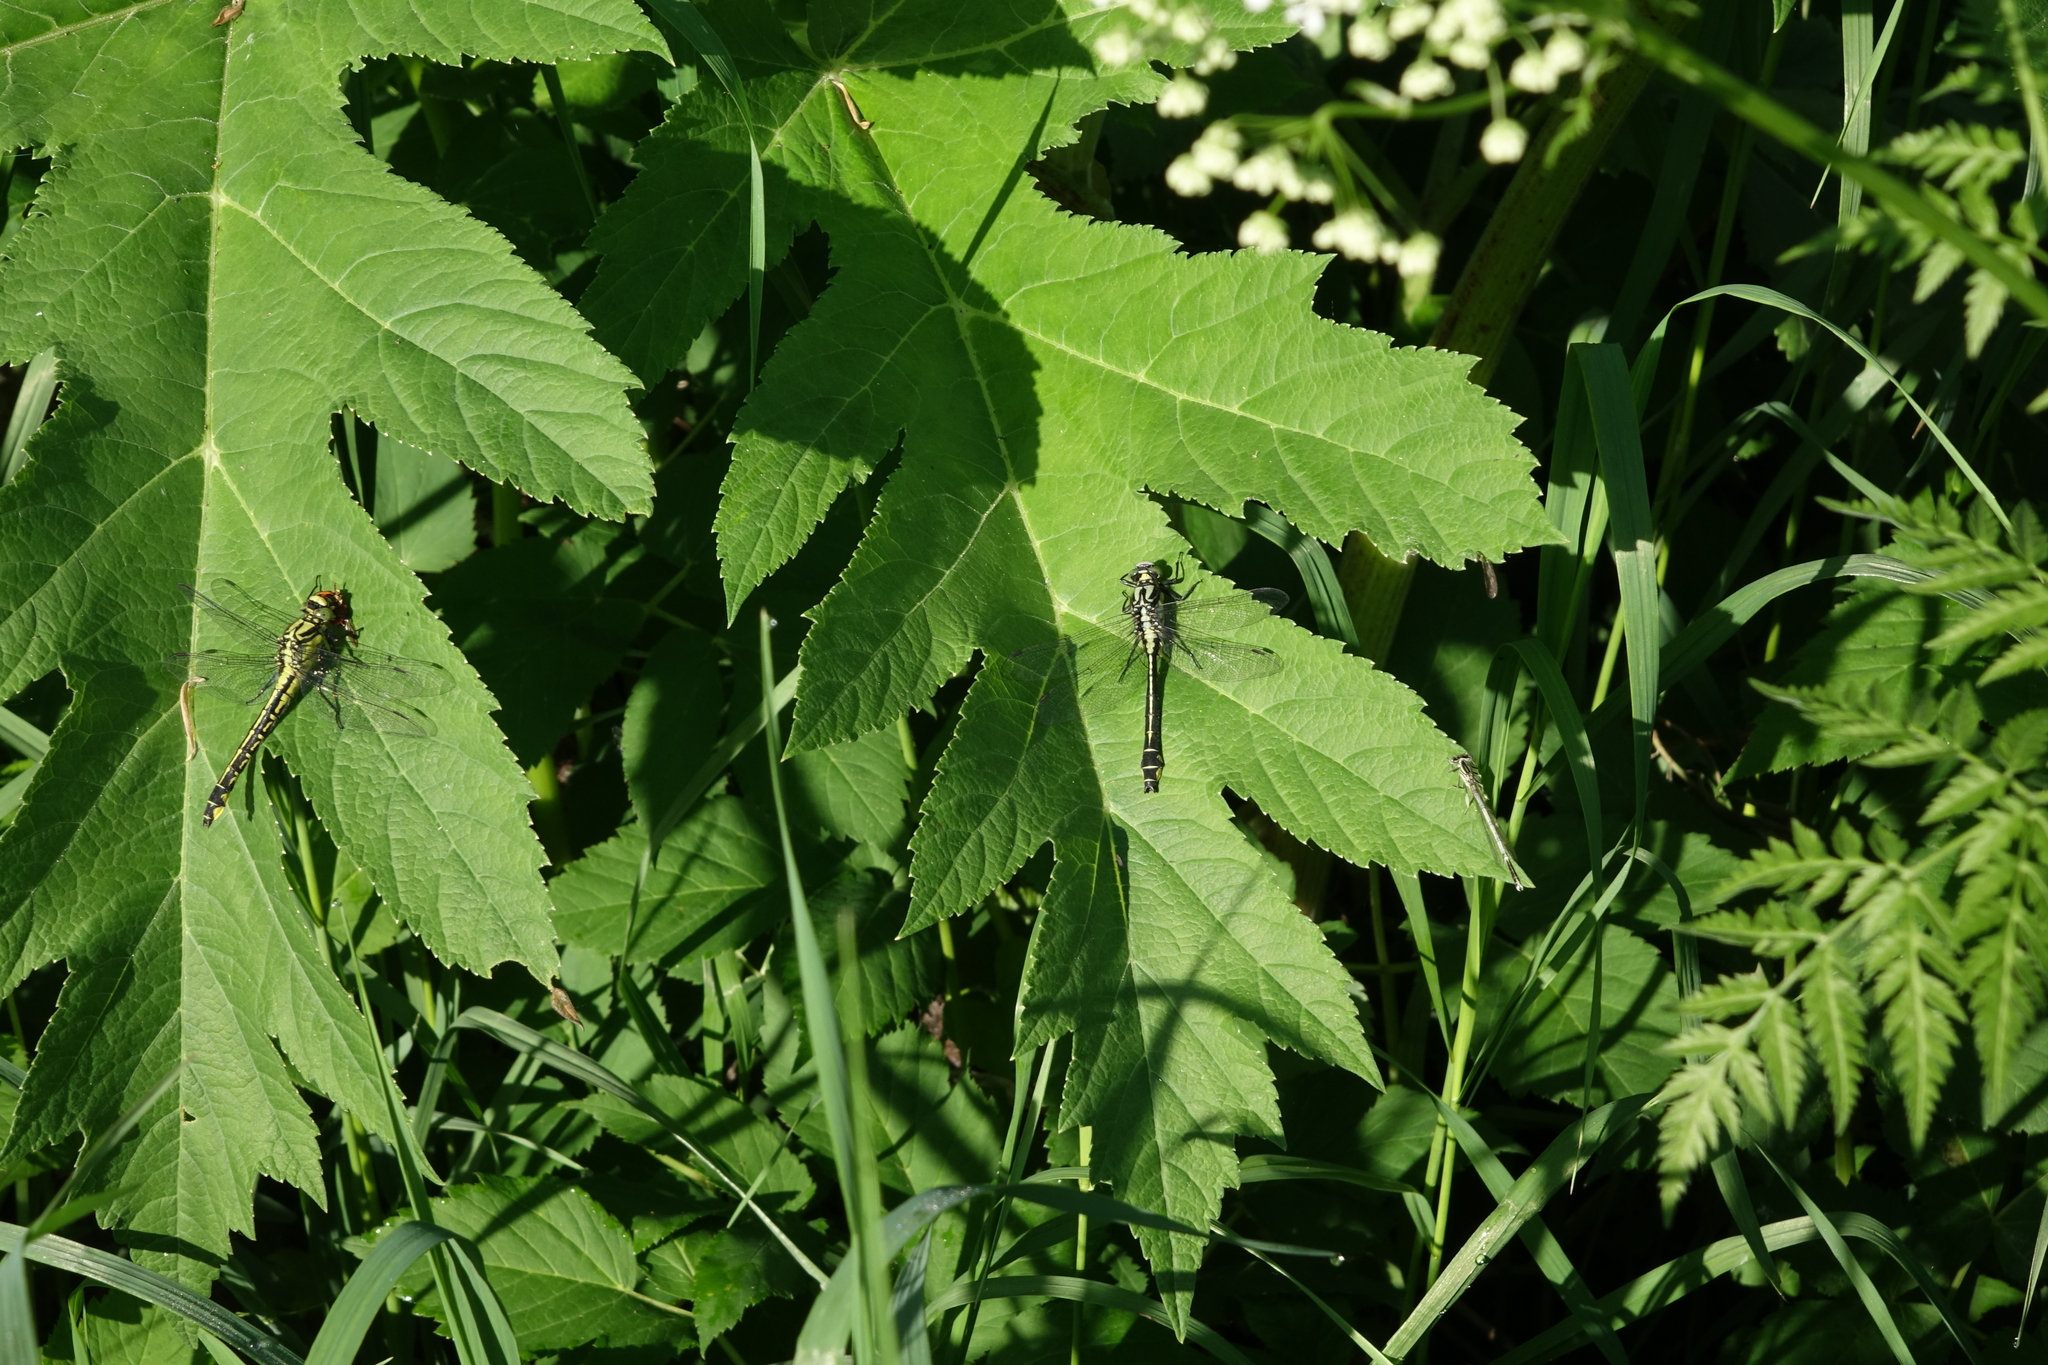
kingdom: Plantae
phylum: Tracheophyta
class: Magnoliopsida
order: Apiales
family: Apiaceae
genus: Heracleum
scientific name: Heracleum dissectum
